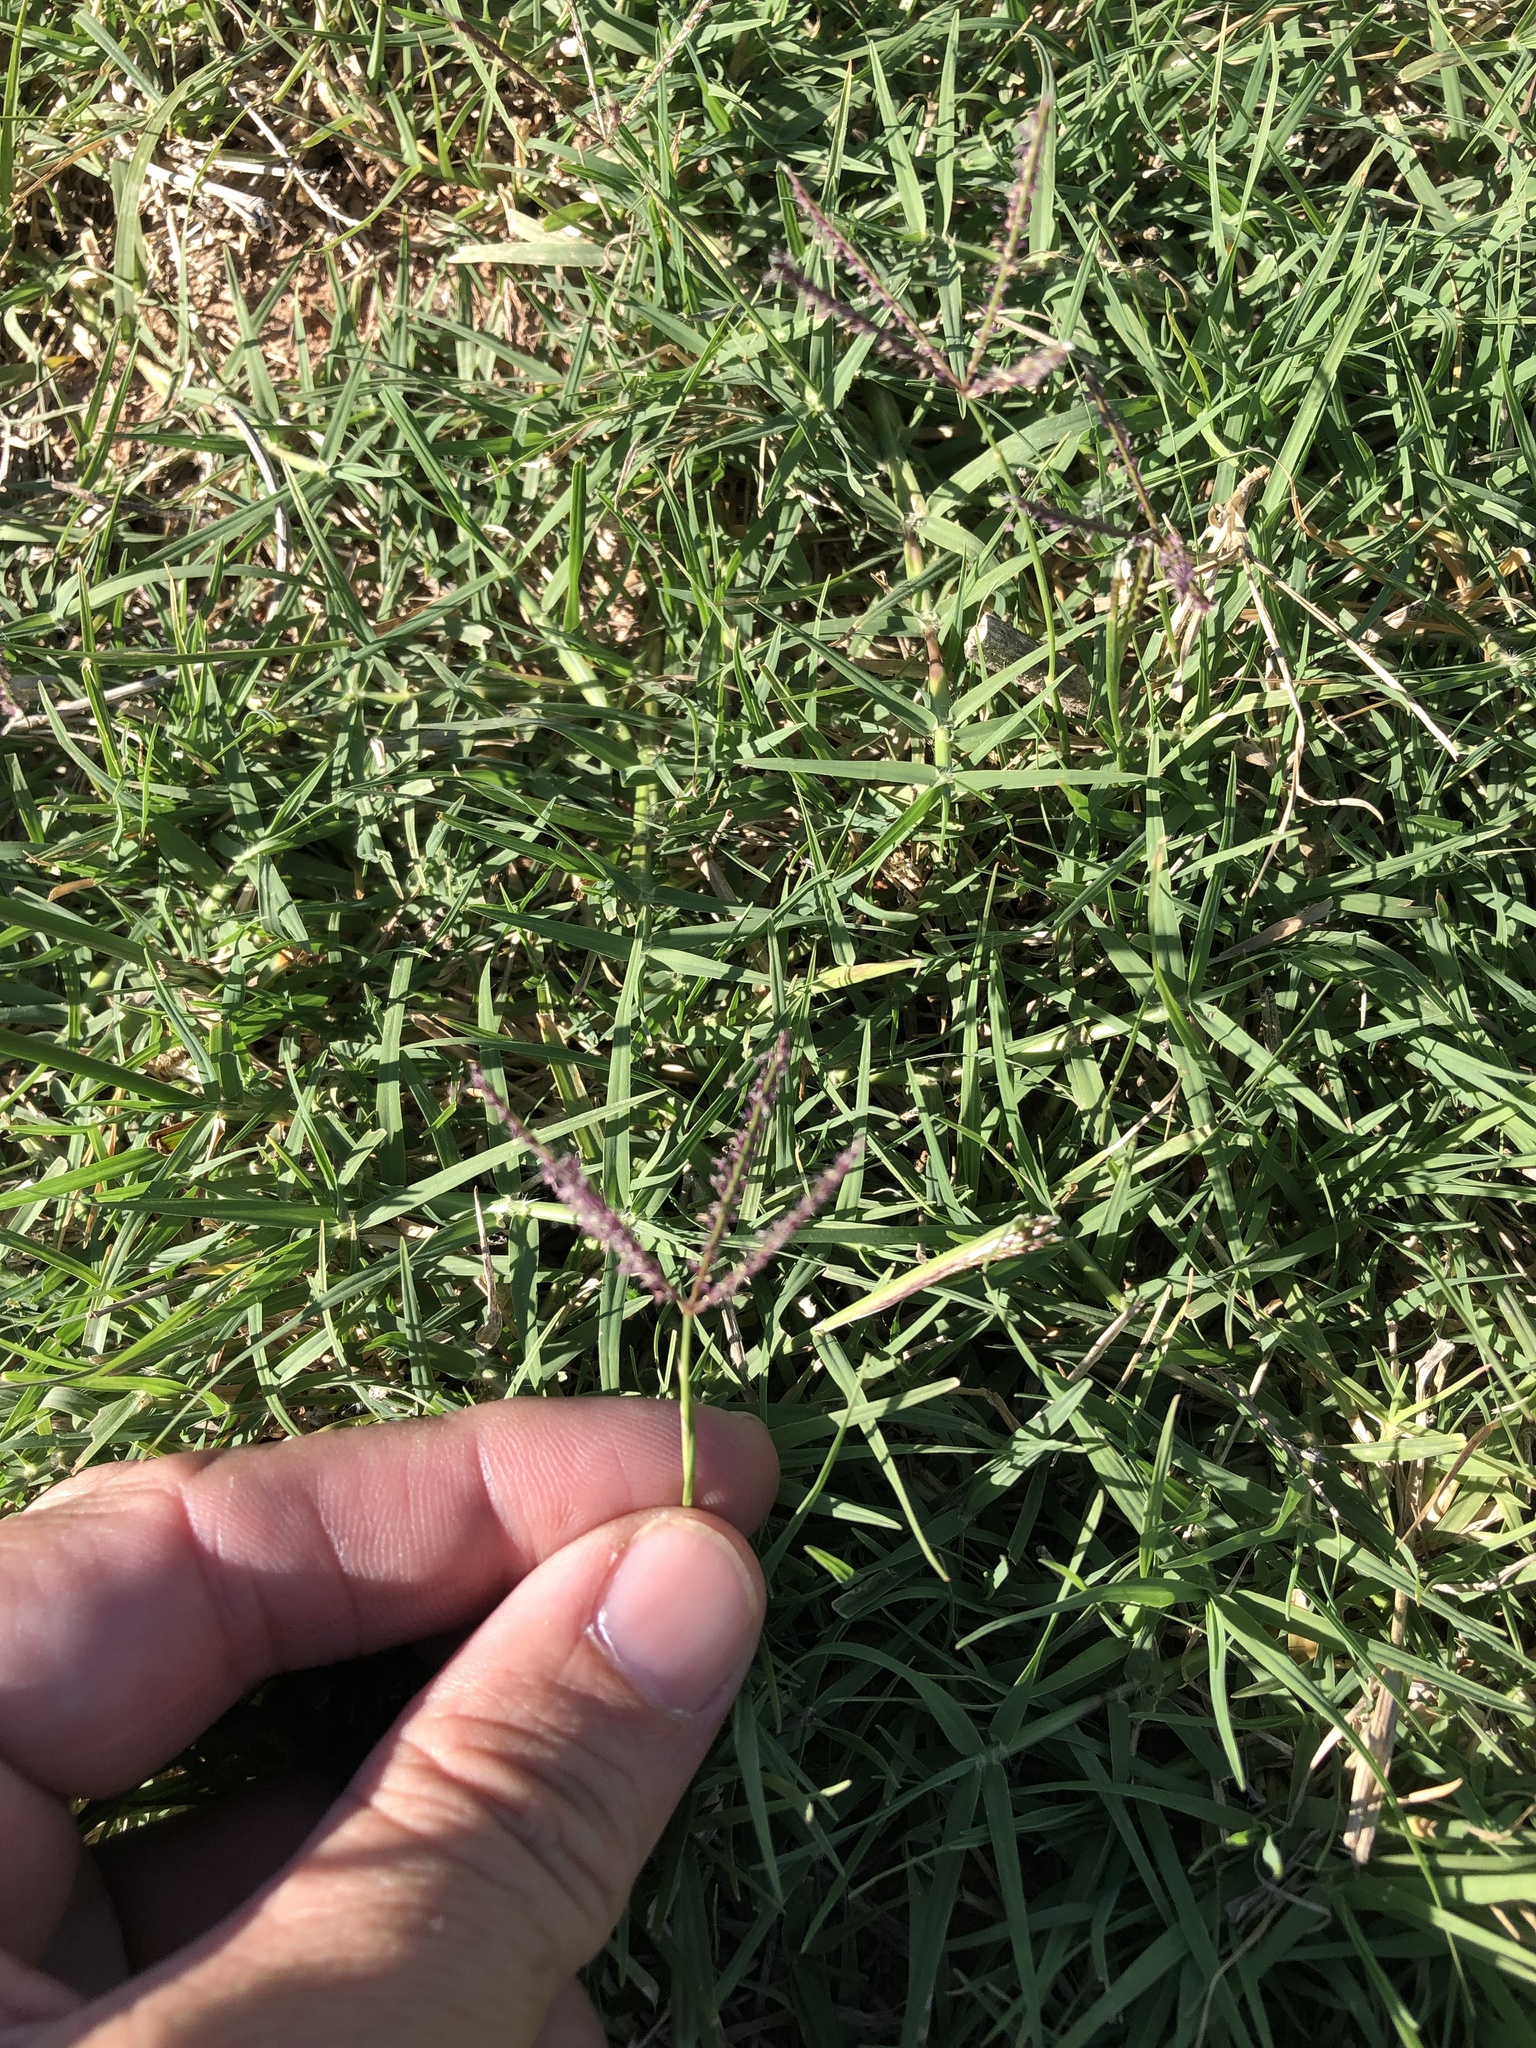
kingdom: Plantae
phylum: Tracheophyta
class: Liliopsida
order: Poales
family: Poaceae
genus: Cynodon
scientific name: Cynodon dactylon
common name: Bermuda grass
